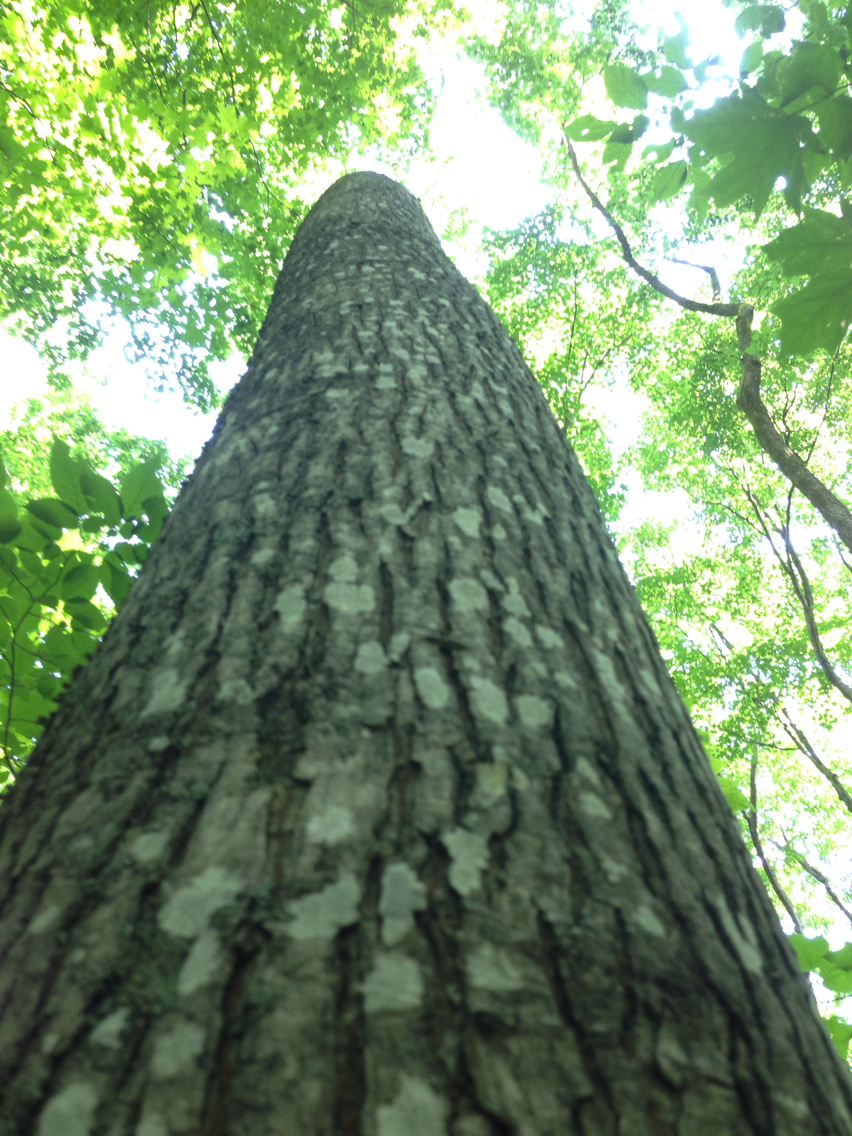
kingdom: Plantae
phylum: Tracheophyta
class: Magnoliopsida
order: Fagales
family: Juglandaceae
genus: Carya
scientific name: Carya cordiformis
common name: Bitternut hickory
